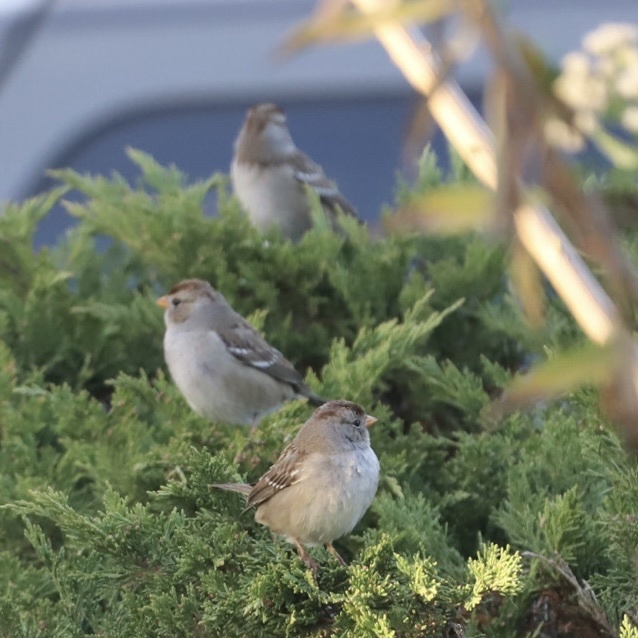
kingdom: Animalia
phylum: Chordata
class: Aves
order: Passeriformes
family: Passerellidae
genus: Zonotrichia
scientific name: Zonotrichia leucophrys
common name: White-crowned sparrow
